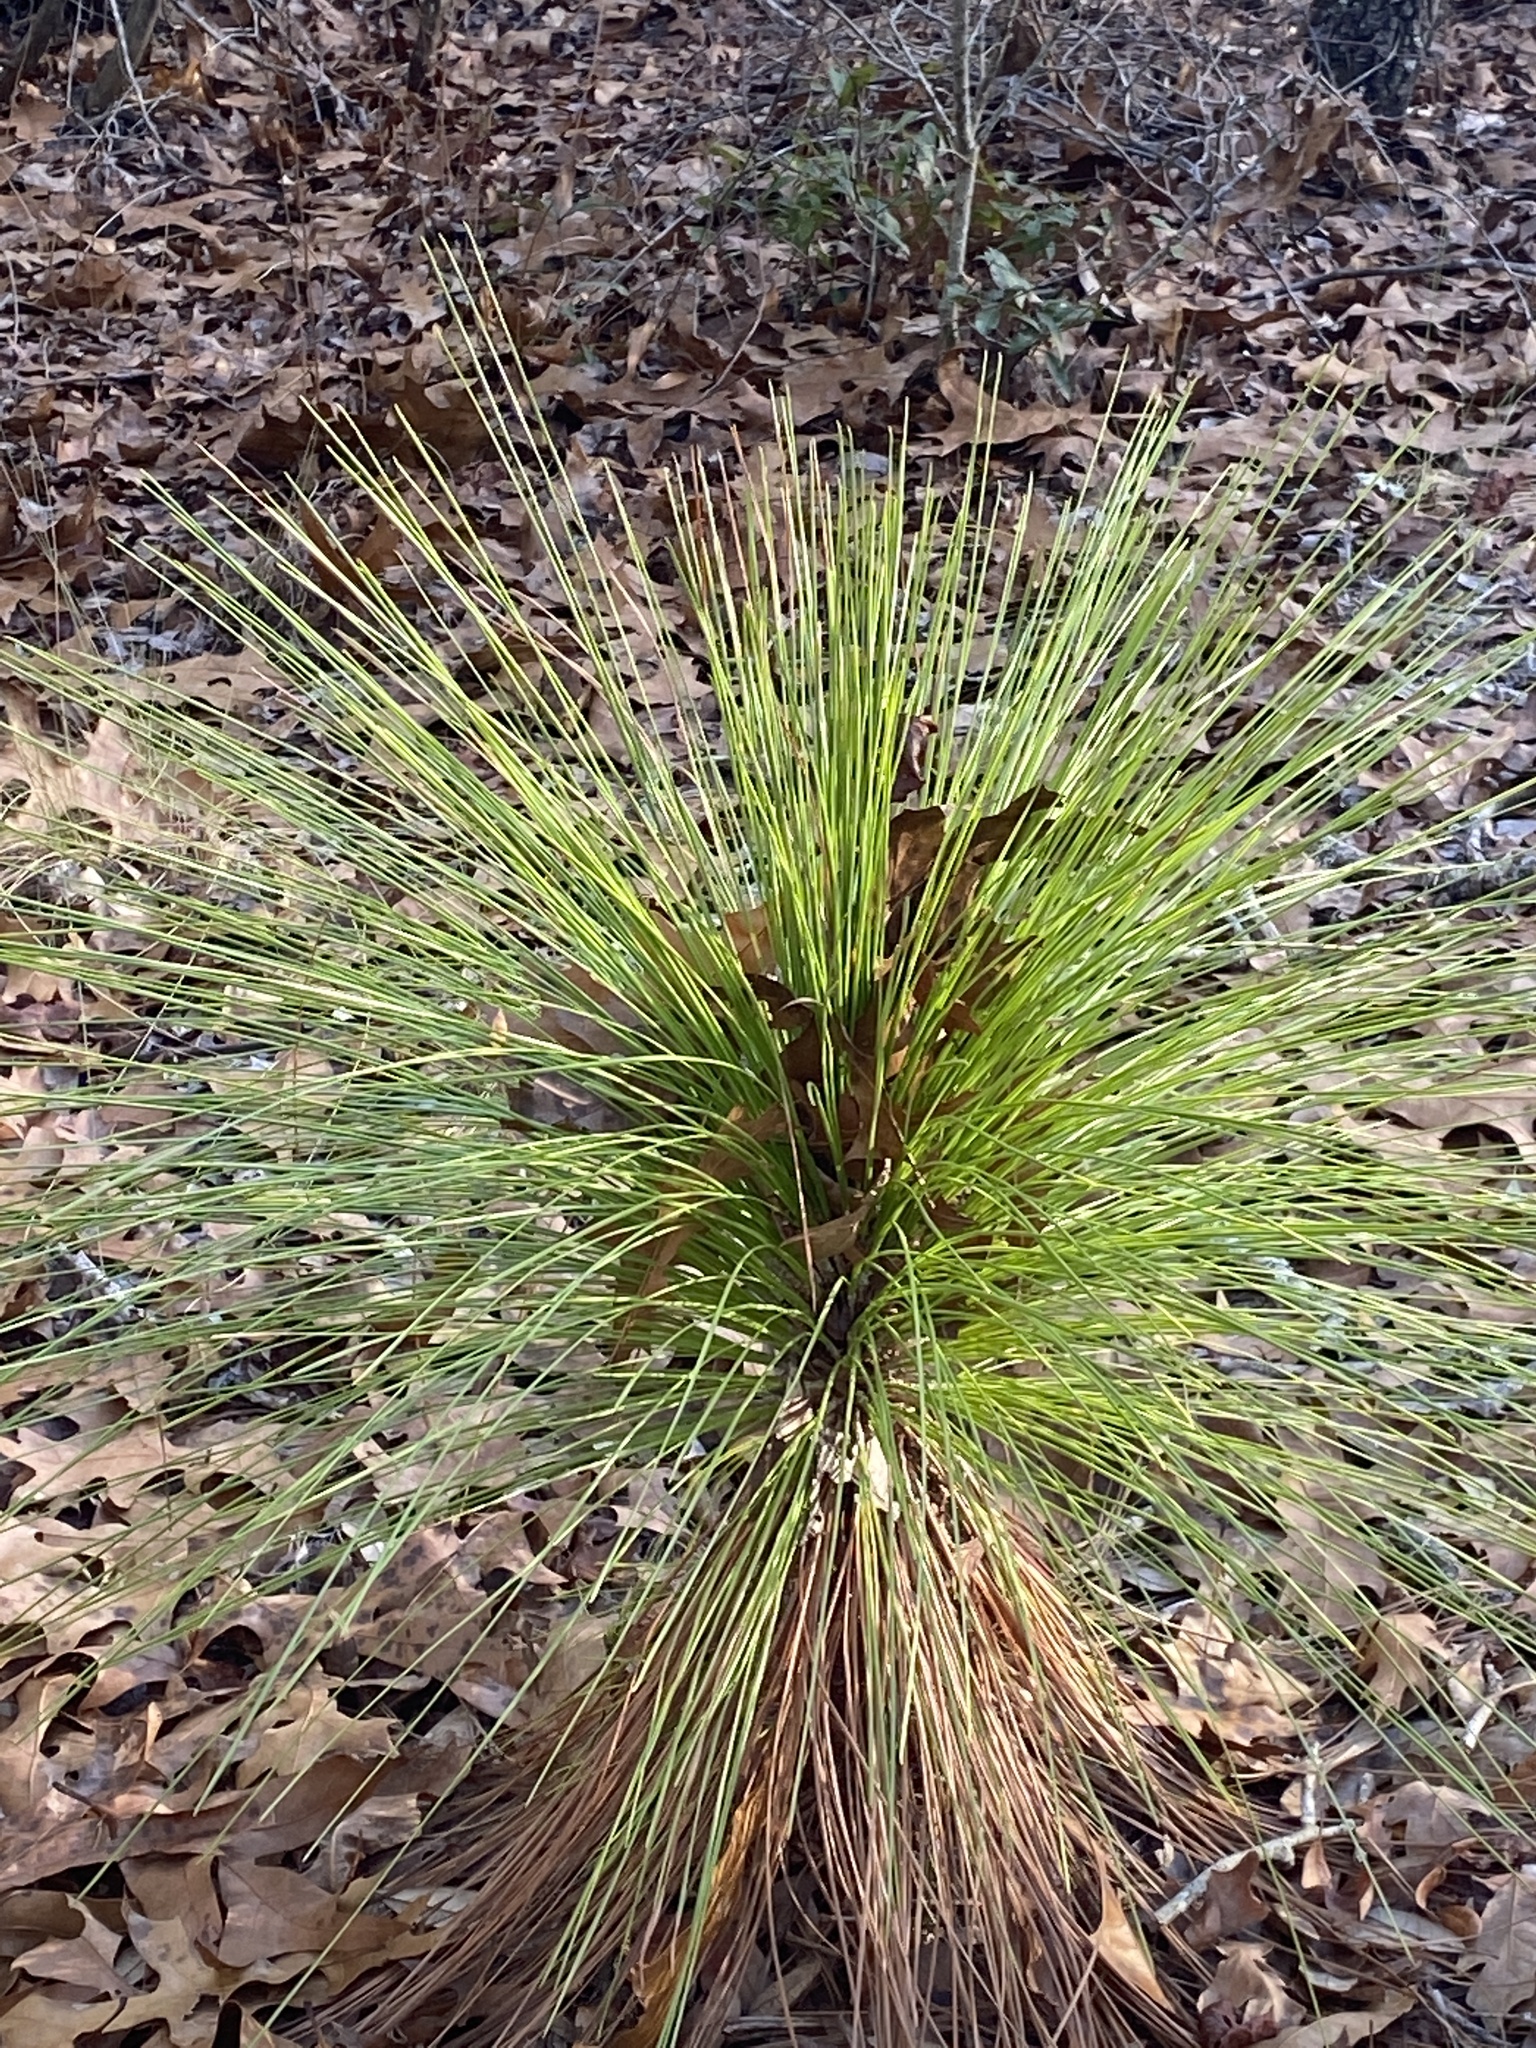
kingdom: Plantae
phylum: Tracheophyta
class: Pinopsida
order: Pinales
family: Pinaceae
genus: Pinus
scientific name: Pinus palustris
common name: Longleaf pine
